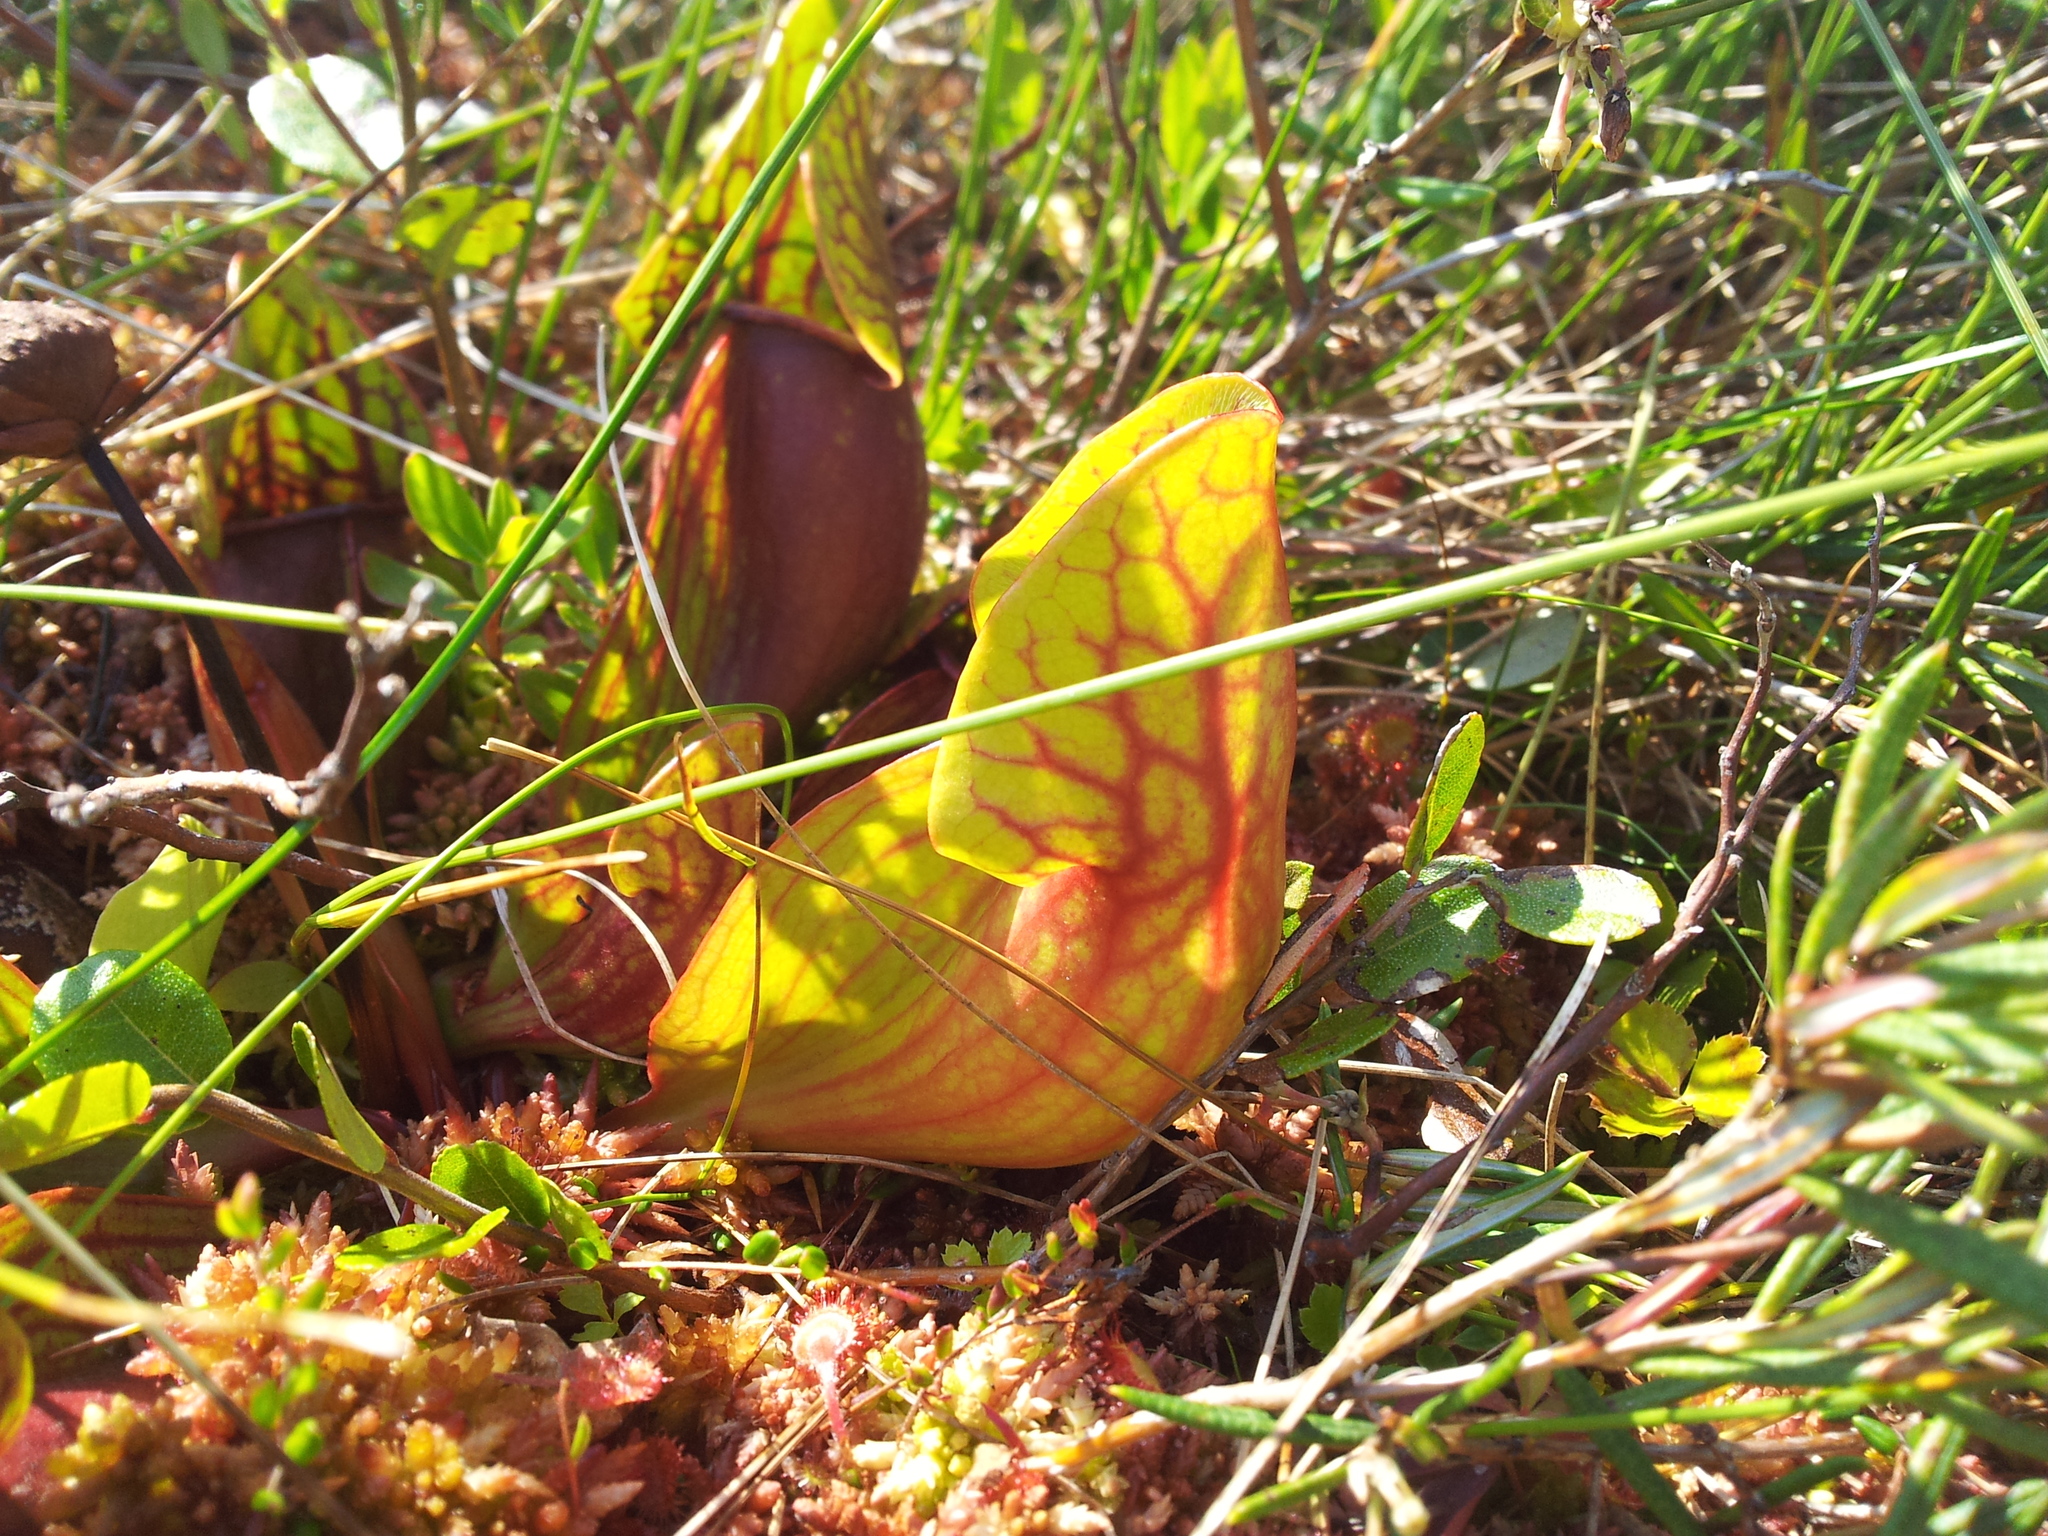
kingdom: Plantae
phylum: Tracheophyta
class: Magnoliopsida
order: Ericales
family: Sarraceniaceae
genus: Sarracenia
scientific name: Sarracenia purpurea
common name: Pitcherplant
